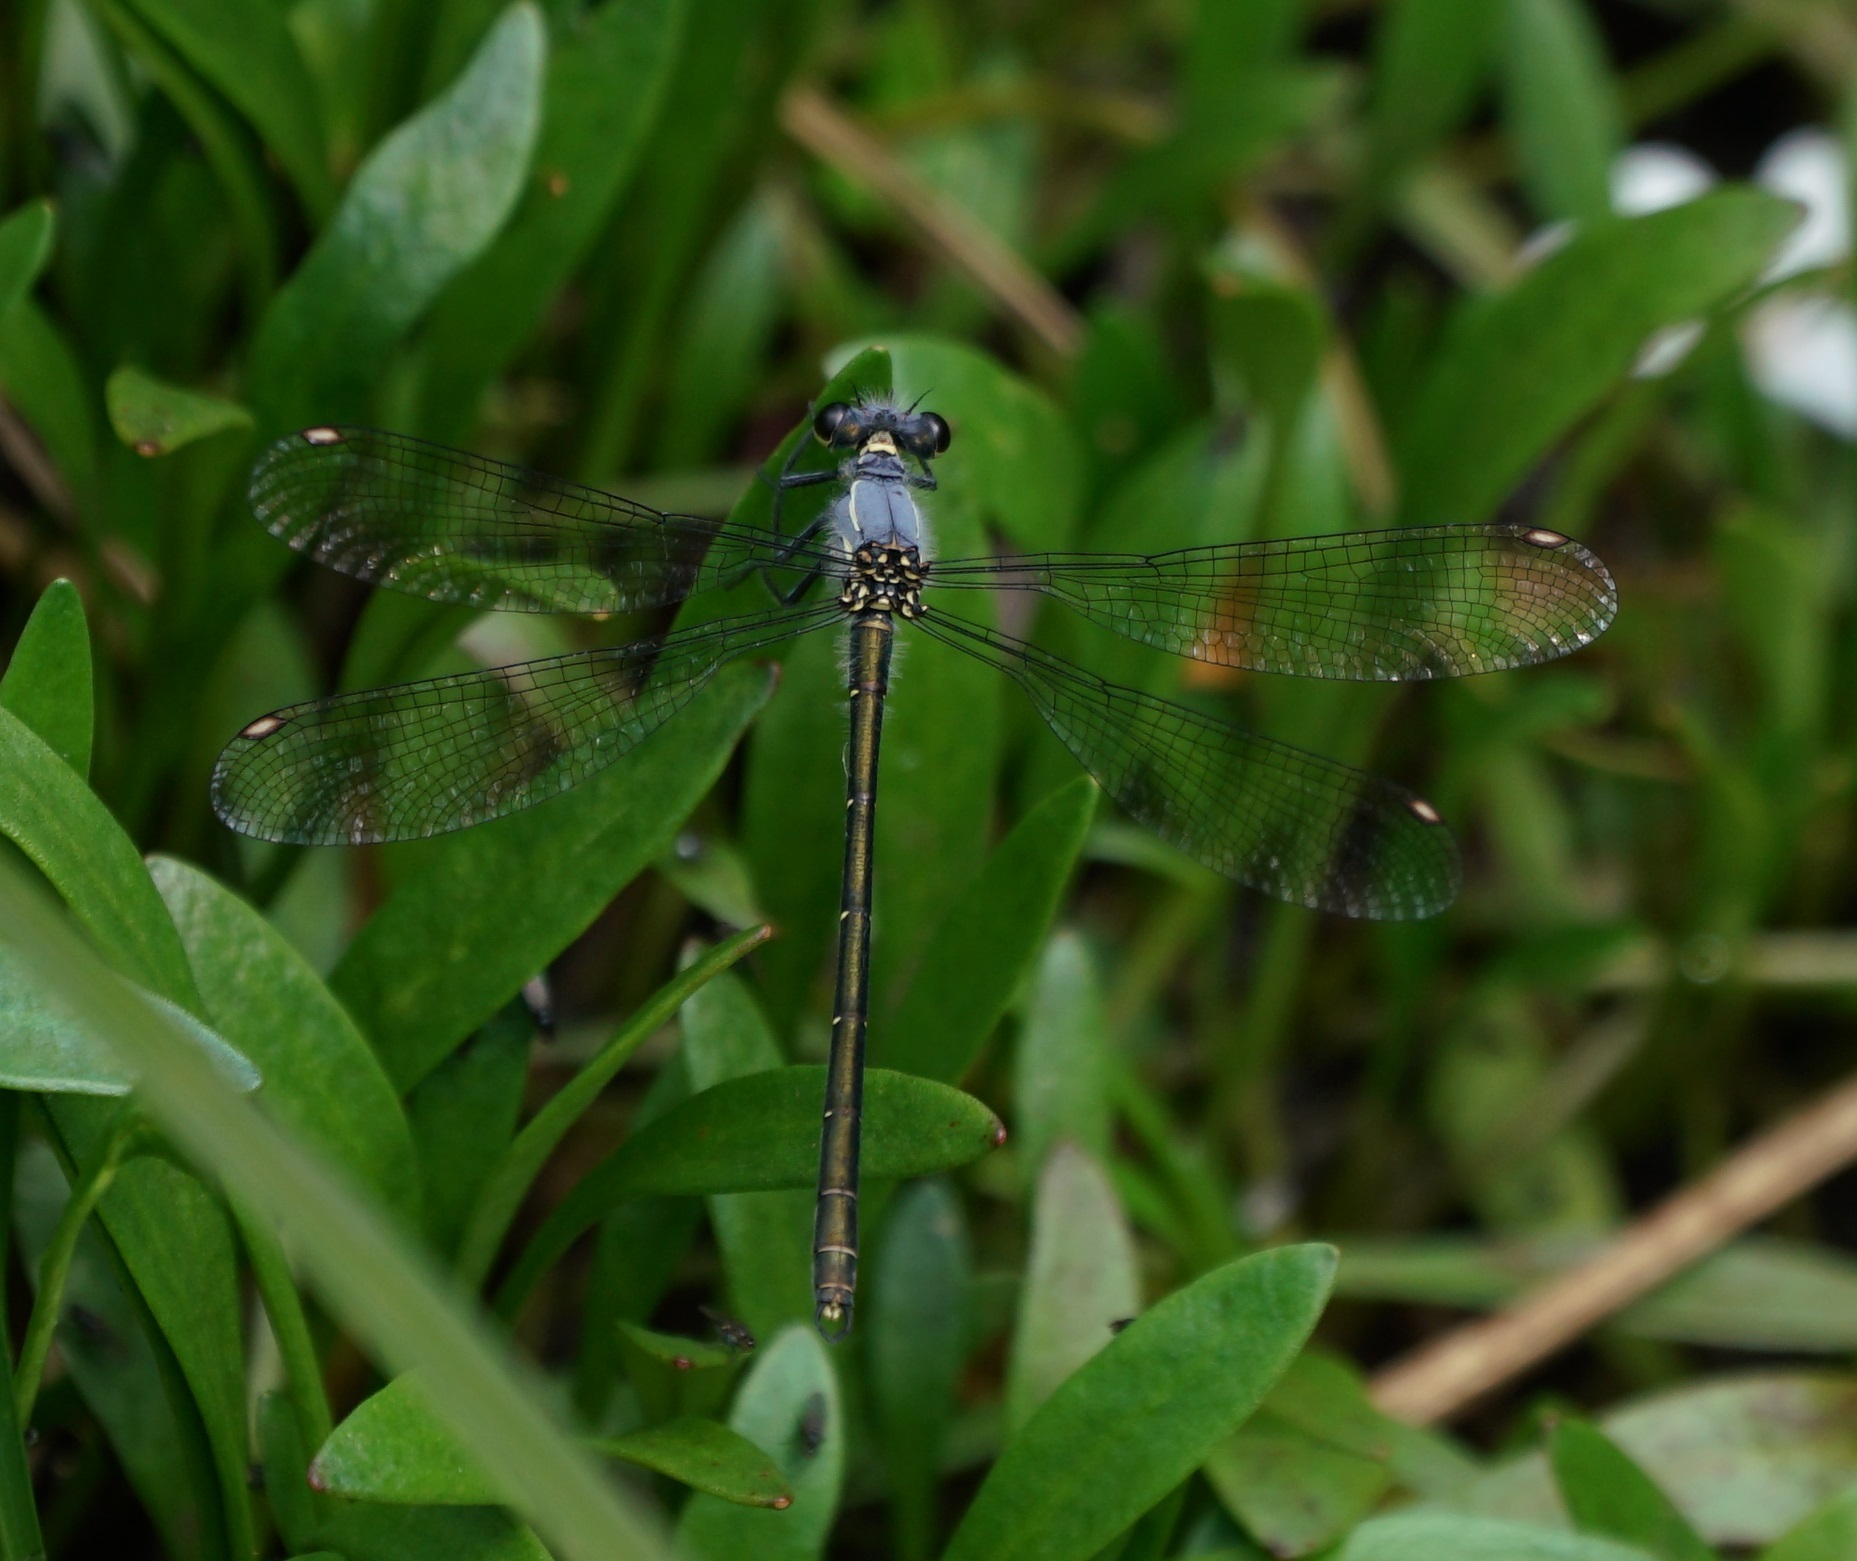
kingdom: Animalia
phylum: Arthropoda
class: Insecta
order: Odonata
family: Argiolestidae
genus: Griseargiolestes
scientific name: Griseargiolestes eboracus
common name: Grey-chested flatwing
